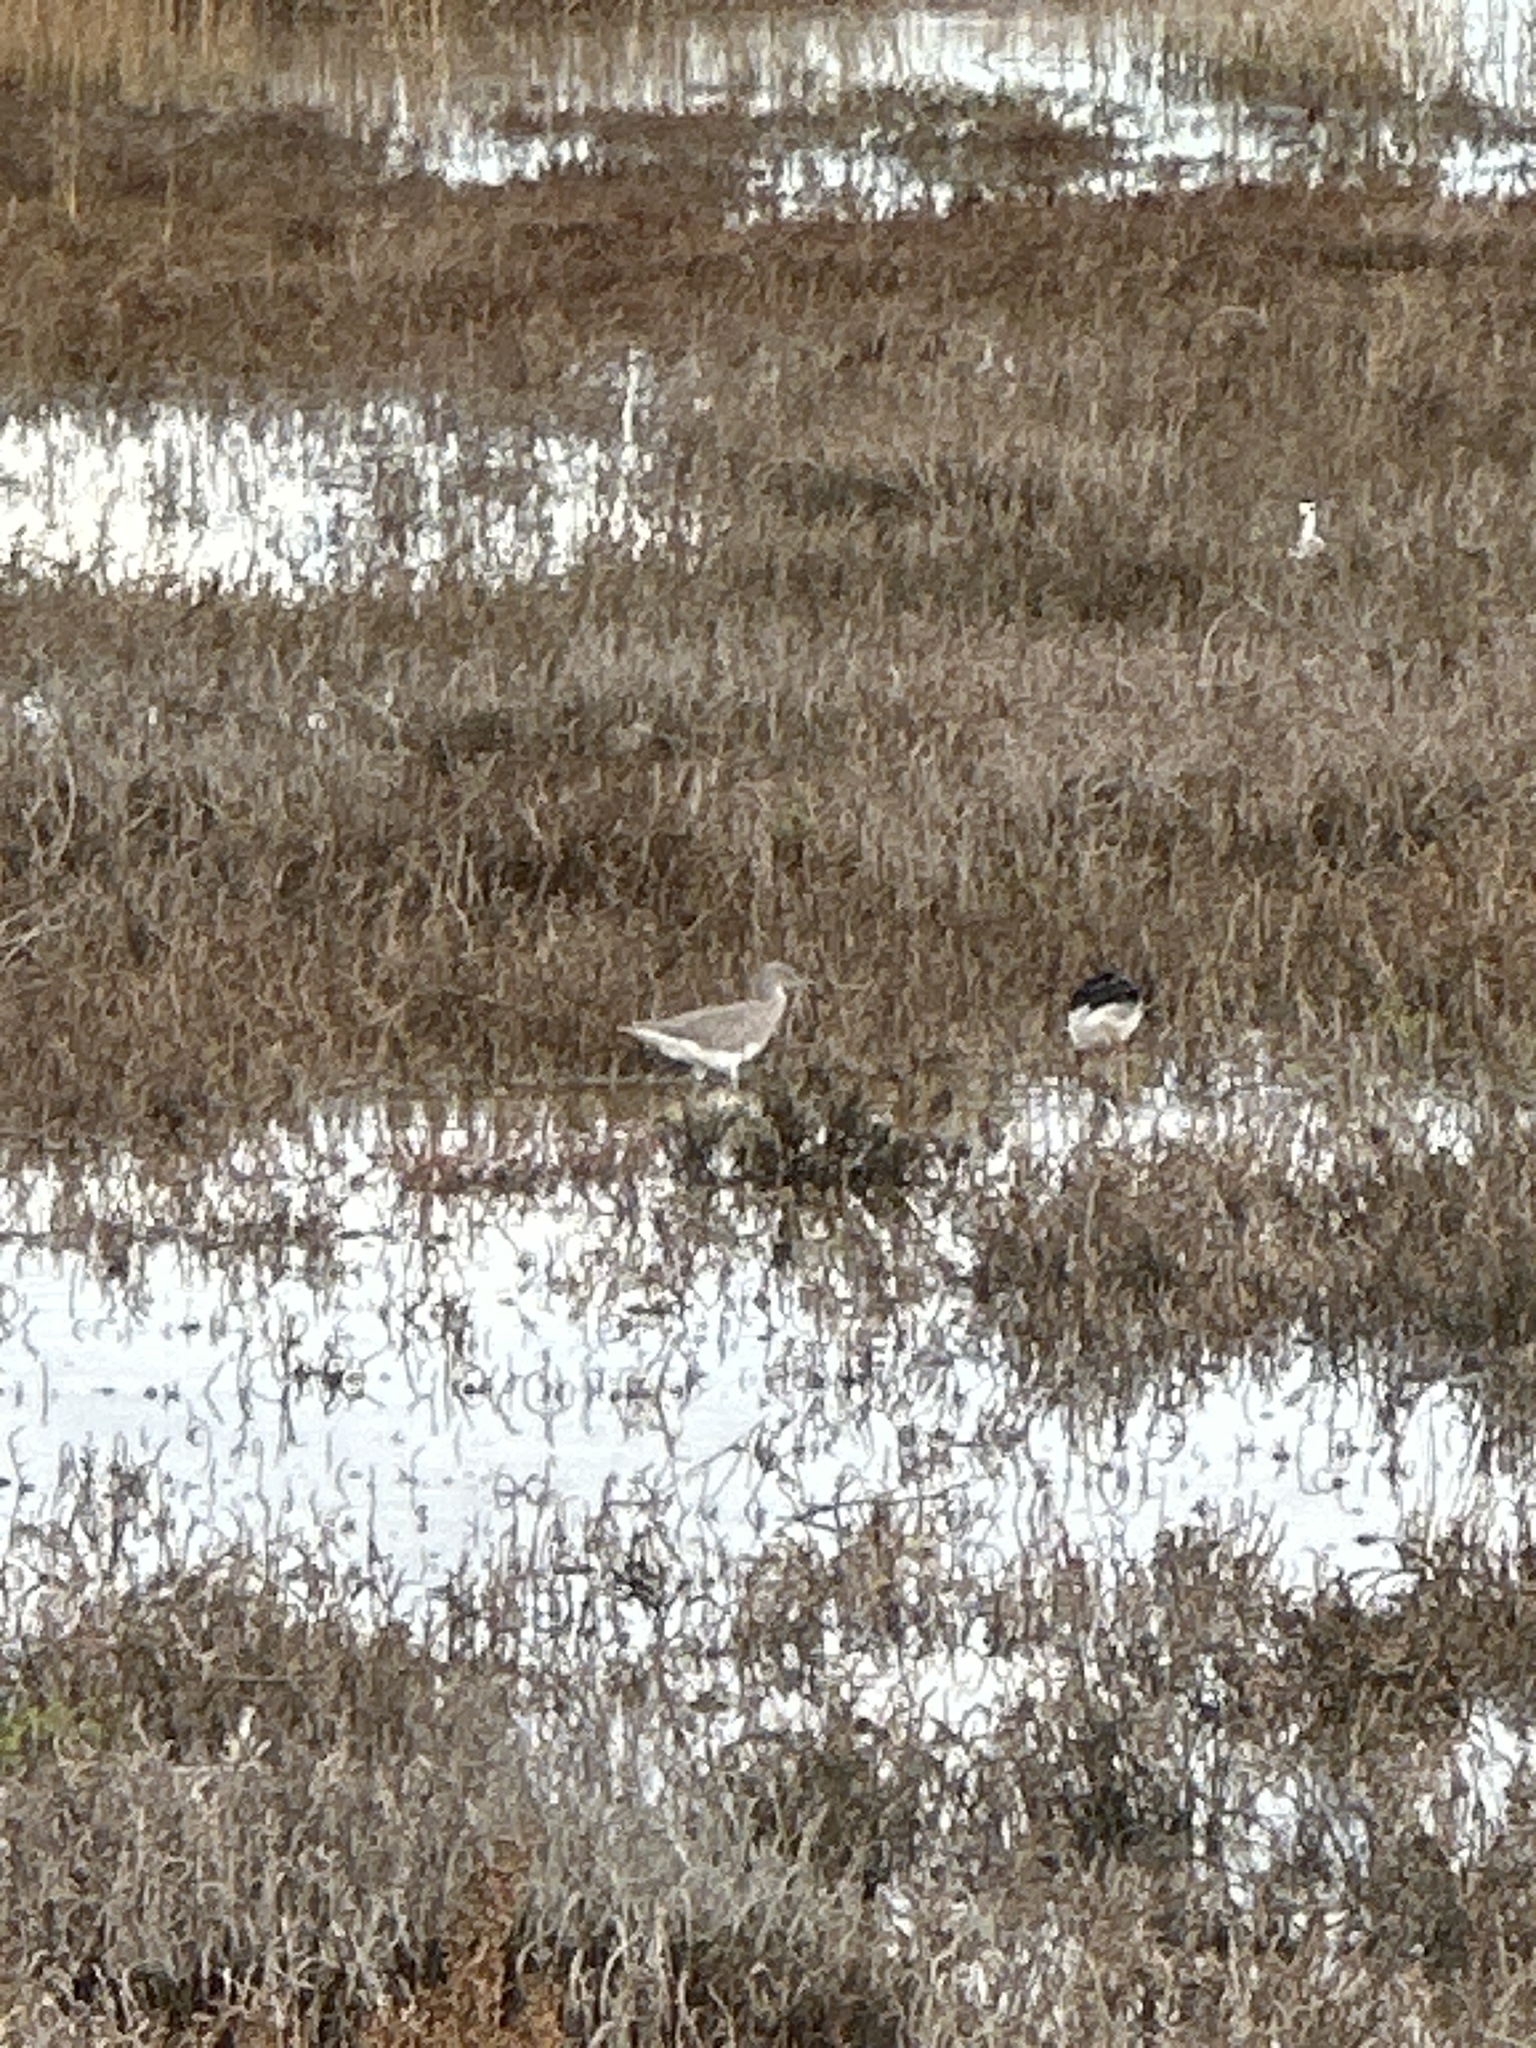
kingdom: Animalia
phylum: Chordata
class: Aves
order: Charadriiformes
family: Scolopacidae
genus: Tringa
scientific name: Tringa melanoleuca
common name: Greater yellowlegs
